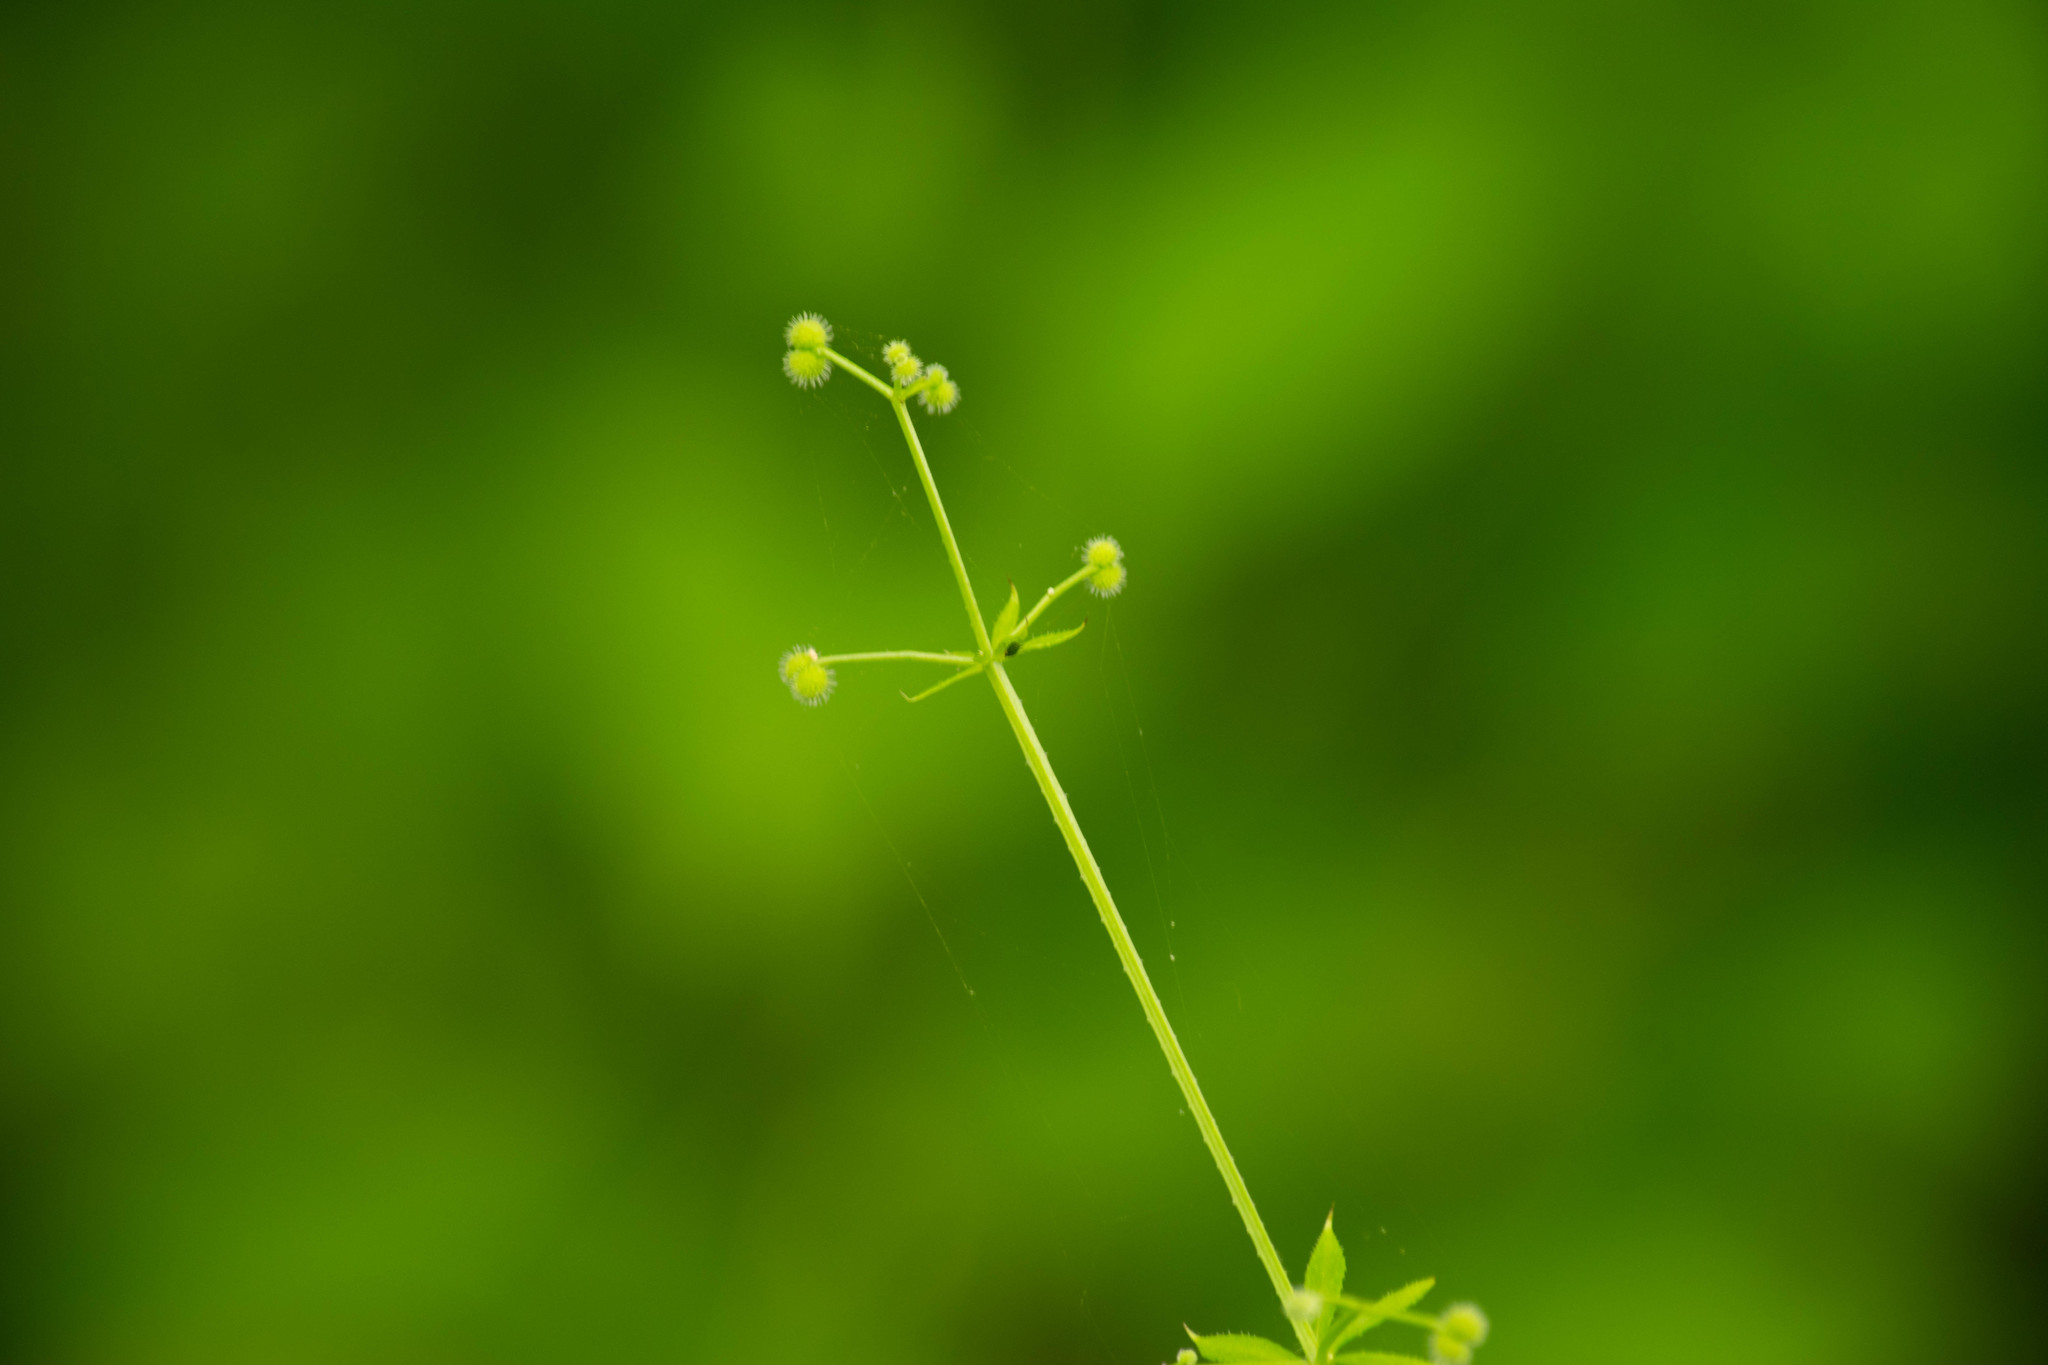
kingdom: Plantae
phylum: Tracheophyta
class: Magnoliopsida
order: Gentianales
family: Rubiaceae
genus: Galium
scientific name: Galium aparine
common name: Cleavers
